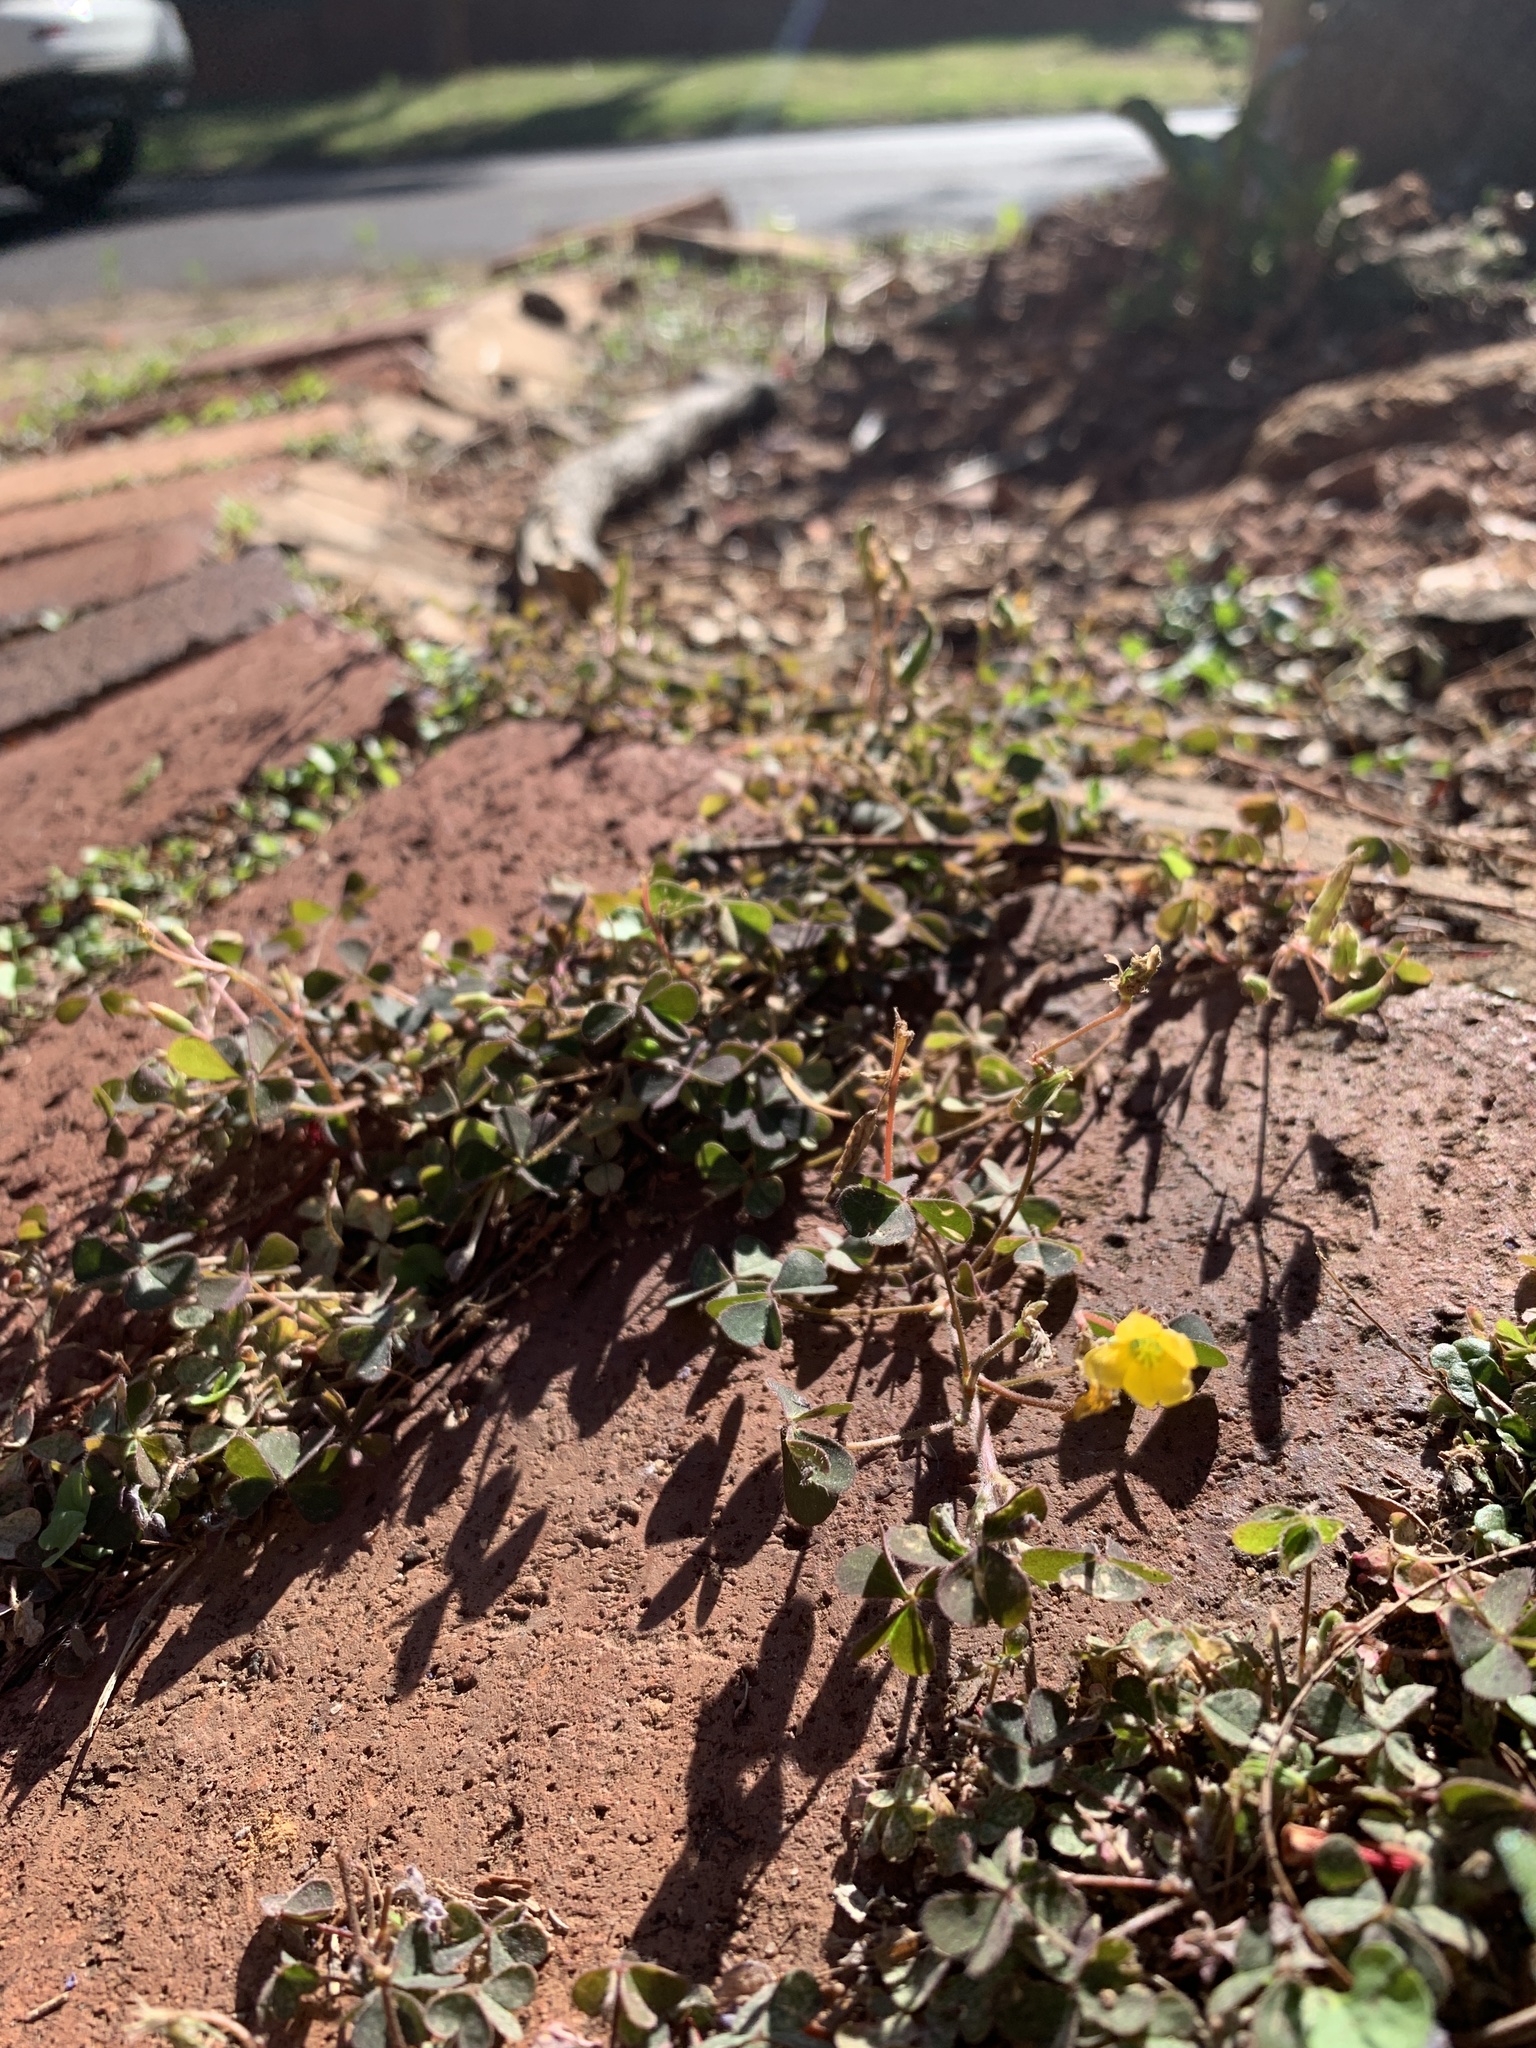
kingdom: Plantae
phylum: Tracheophyta
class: Magnoliopsida
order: Oxalidales
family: Oxalidaceae
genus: Oxalis
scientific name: Oxalis corniculata
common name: Procumbent yellow-sorrel
